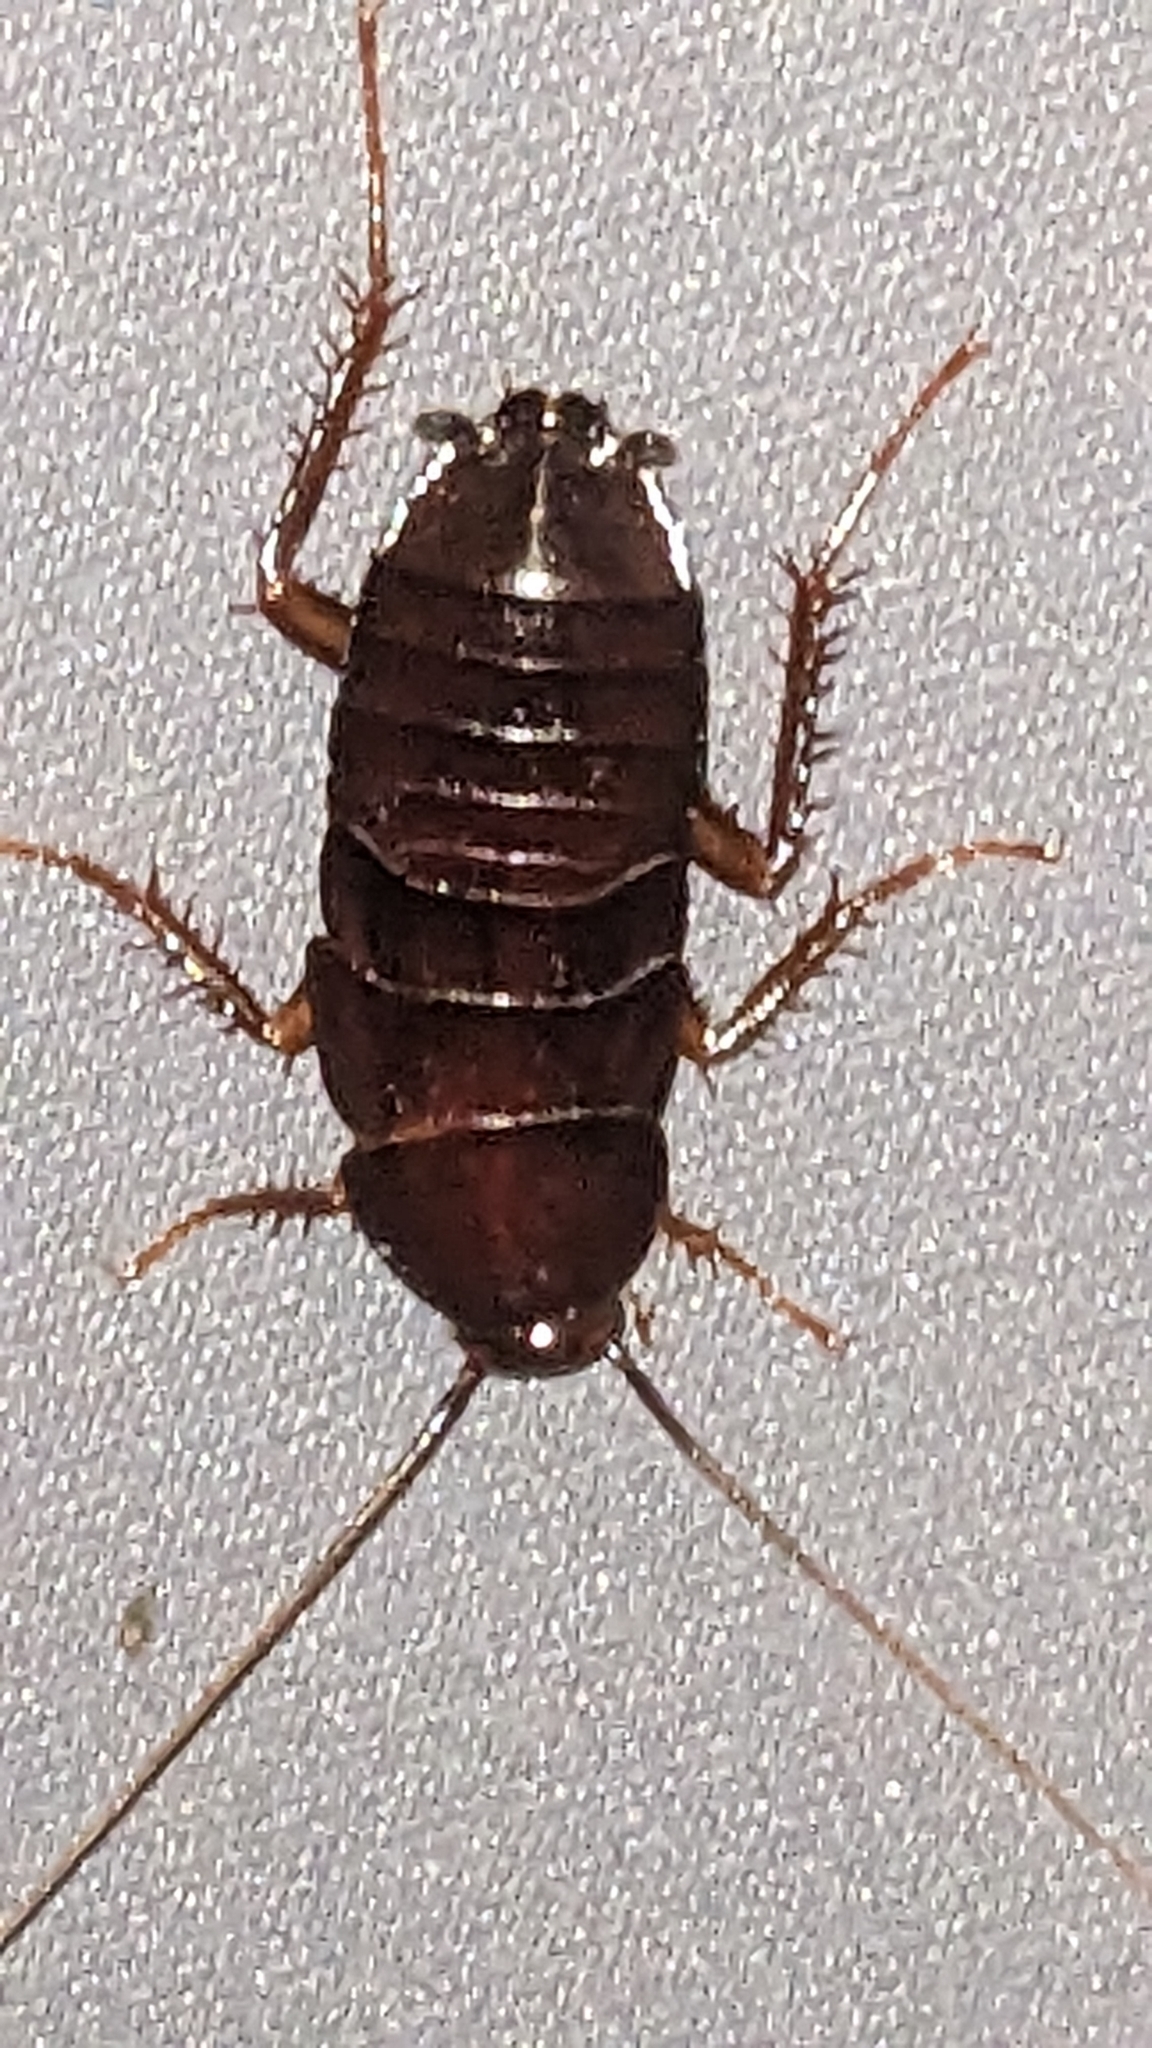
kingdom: Animalia
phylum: Arthropoda
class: Insecta
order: Blattodea
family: Blattidae
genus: Blatta
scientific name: Blatta orientalis
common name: Oriental cockroach
